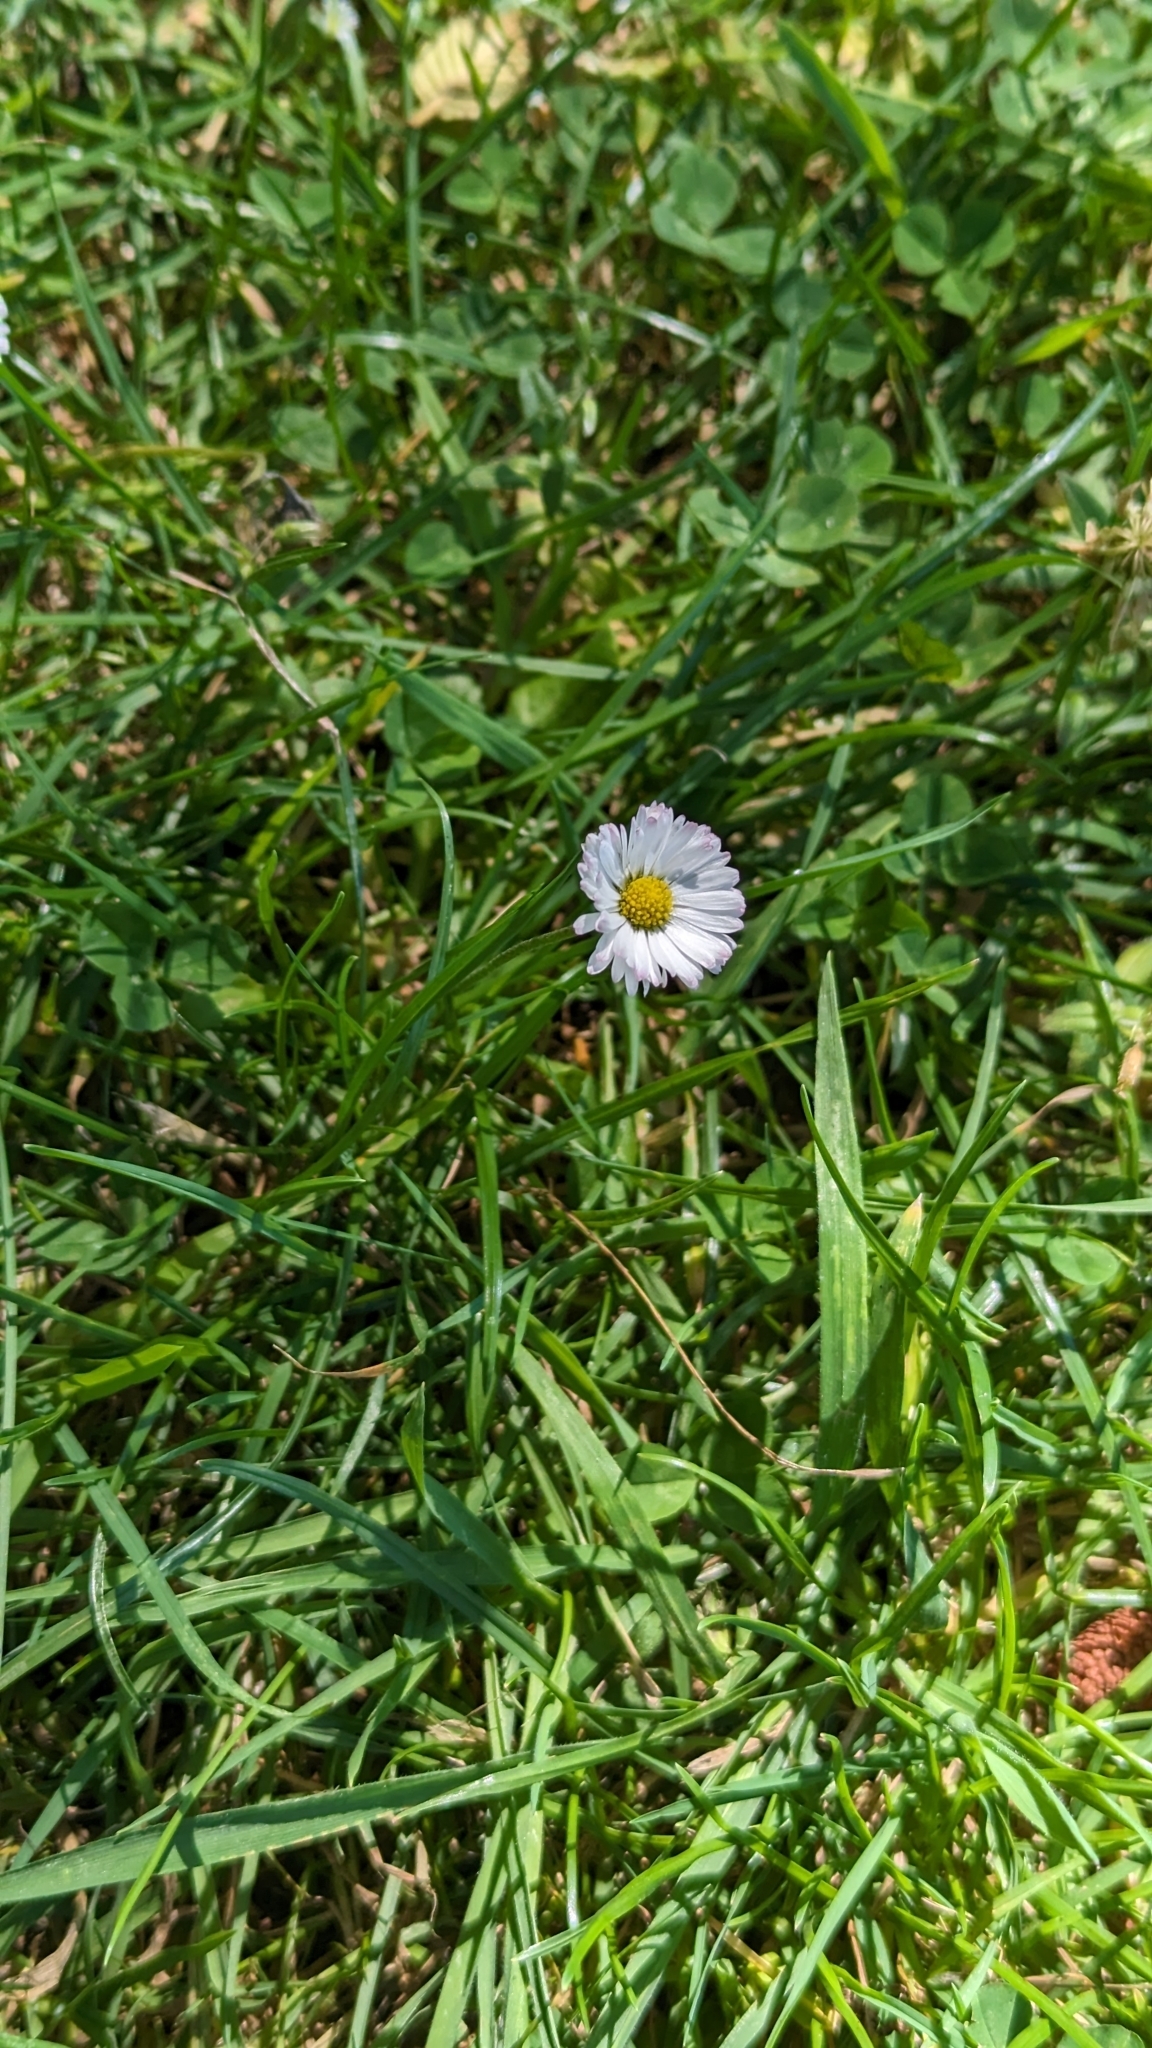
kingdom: Plantae
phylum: Tracheophyta
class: Magnoliopsida
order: Asterales
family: Asteraceae
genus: Bellis
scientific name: Bellis perennis
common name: Lawndaisy
